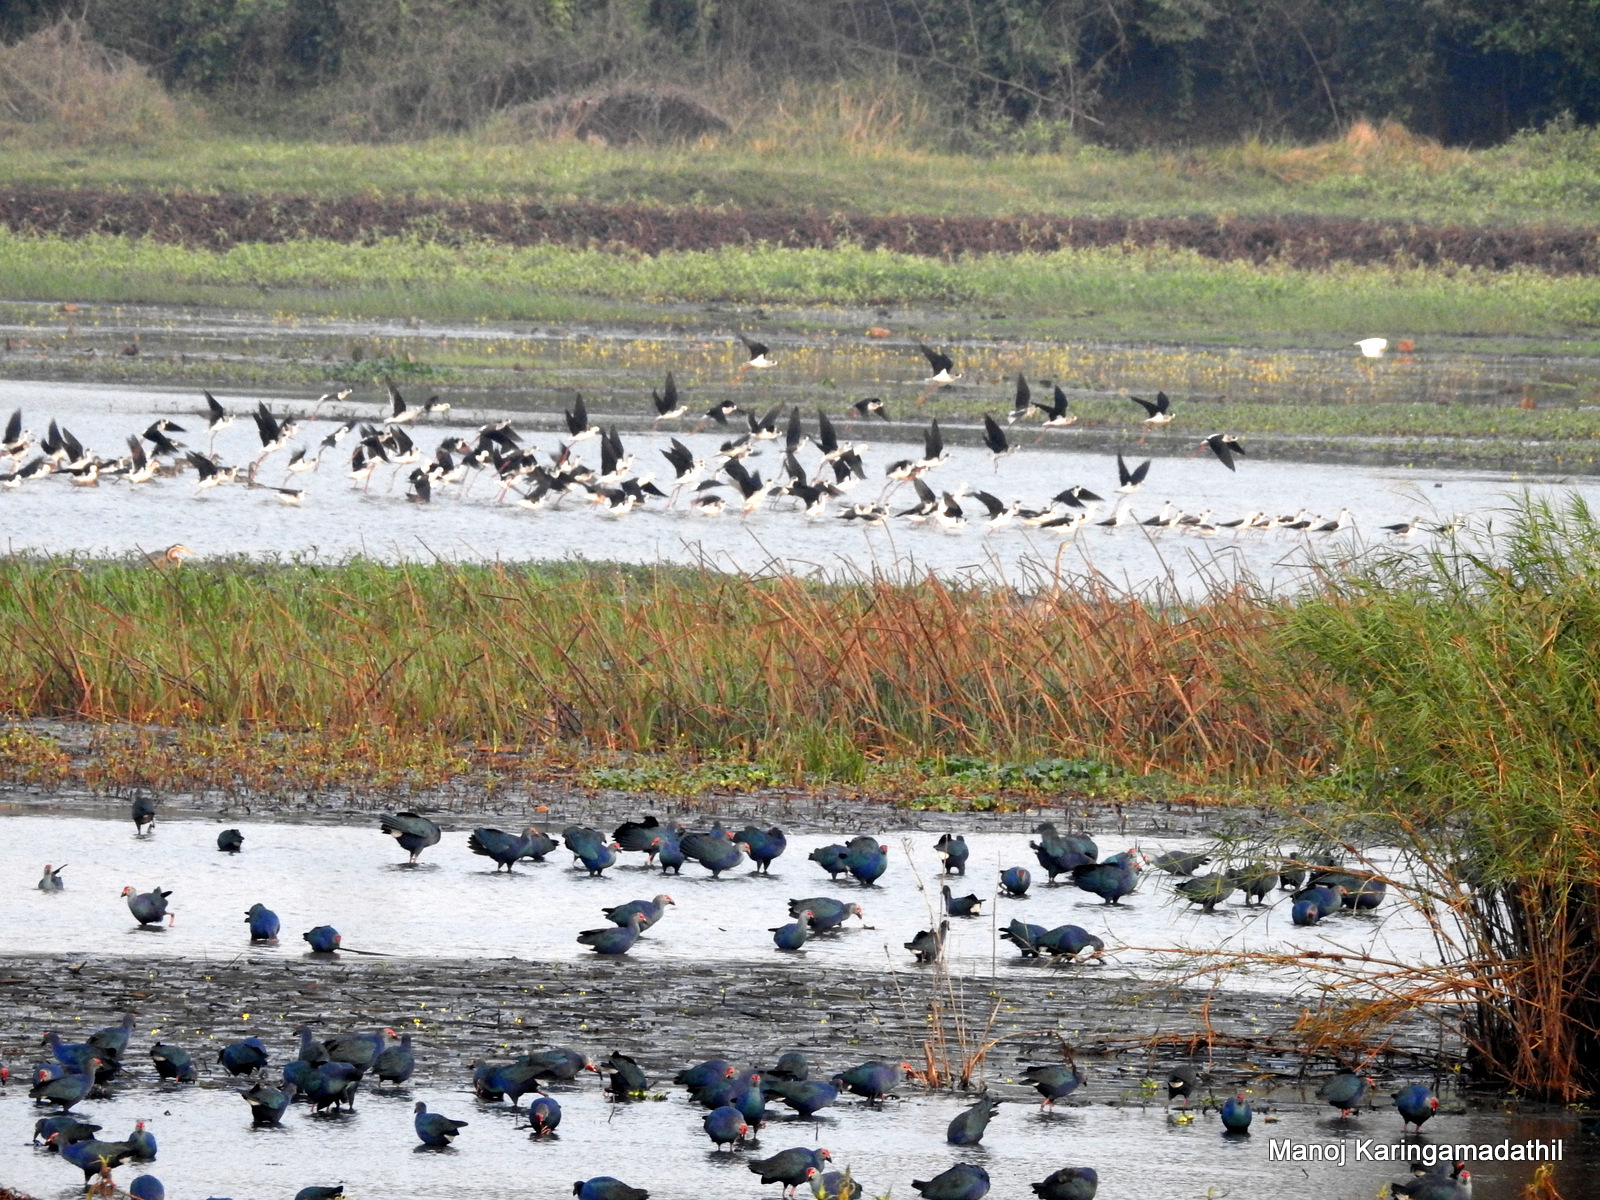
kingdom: Animalia
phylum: Chordata
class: Aves
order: Gruiformes
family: Rallidae
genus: Porphyrio
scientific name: Porphyrio porphyrio
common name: Purple swamphen
